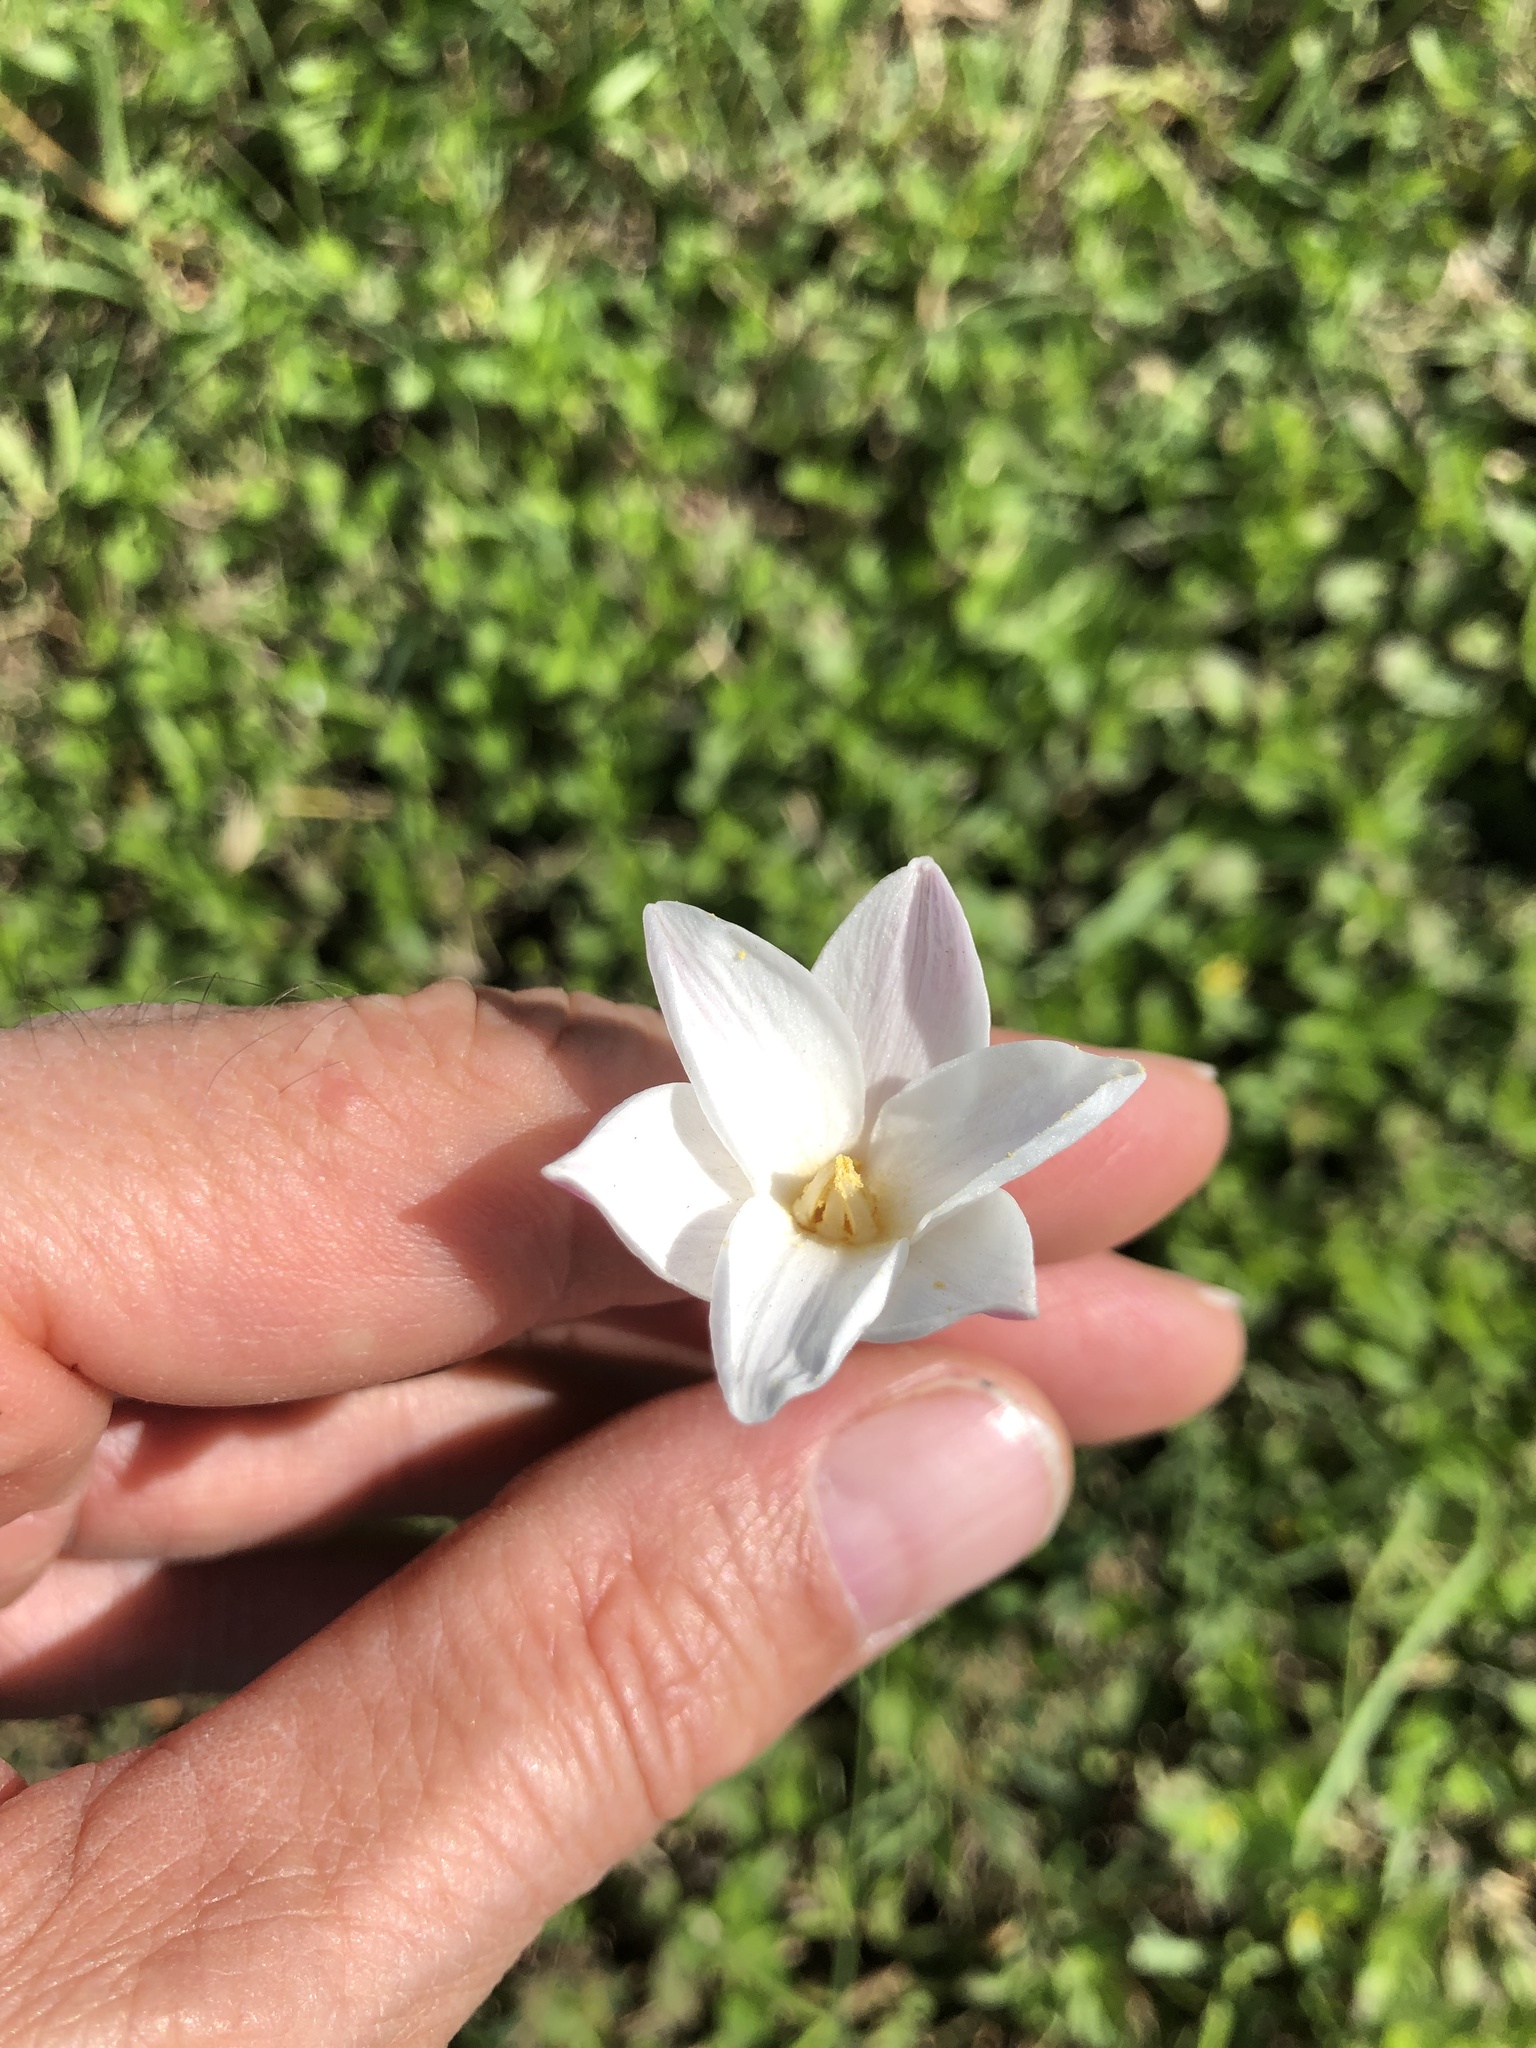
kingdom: Plantae
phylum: Tracheophyta
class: Liliopsida
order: Asparagales
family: Amaryllidaceae
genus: Zephyranthes
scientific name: Zephyranthes chlorosolen
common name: Evening rain-lily
